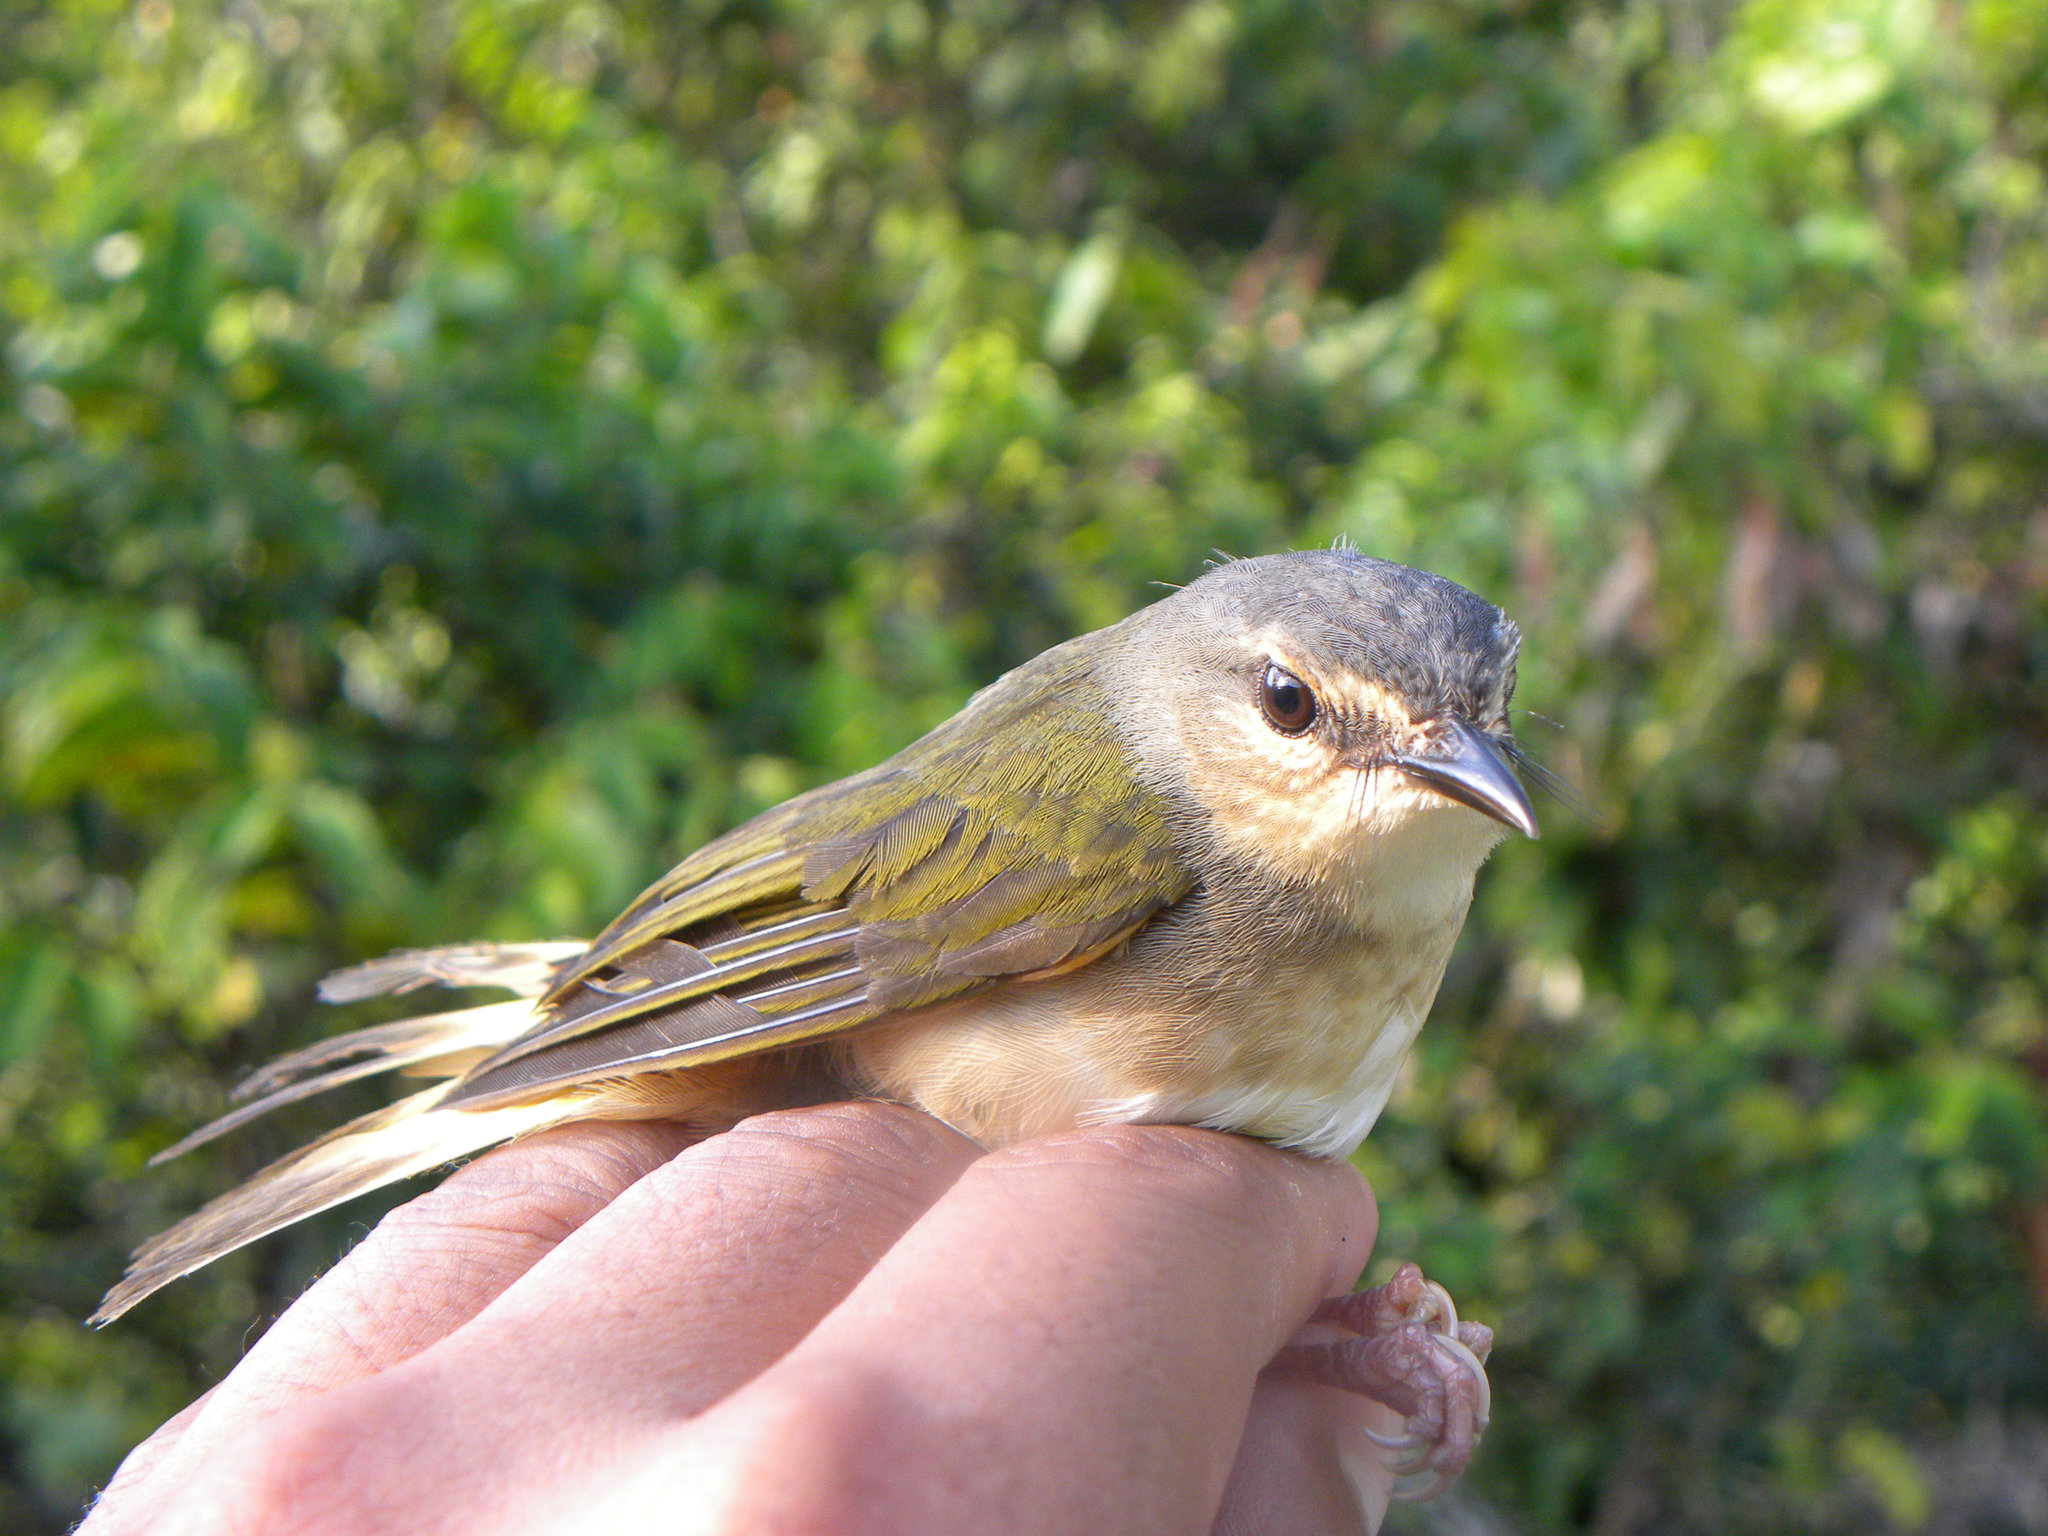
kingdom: Animalia
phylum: Chordata
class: Aves
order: Passeriformes
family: Vireonidae
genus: Vireo
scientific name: Vireo olivaceus
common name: Red-eyed vireo
